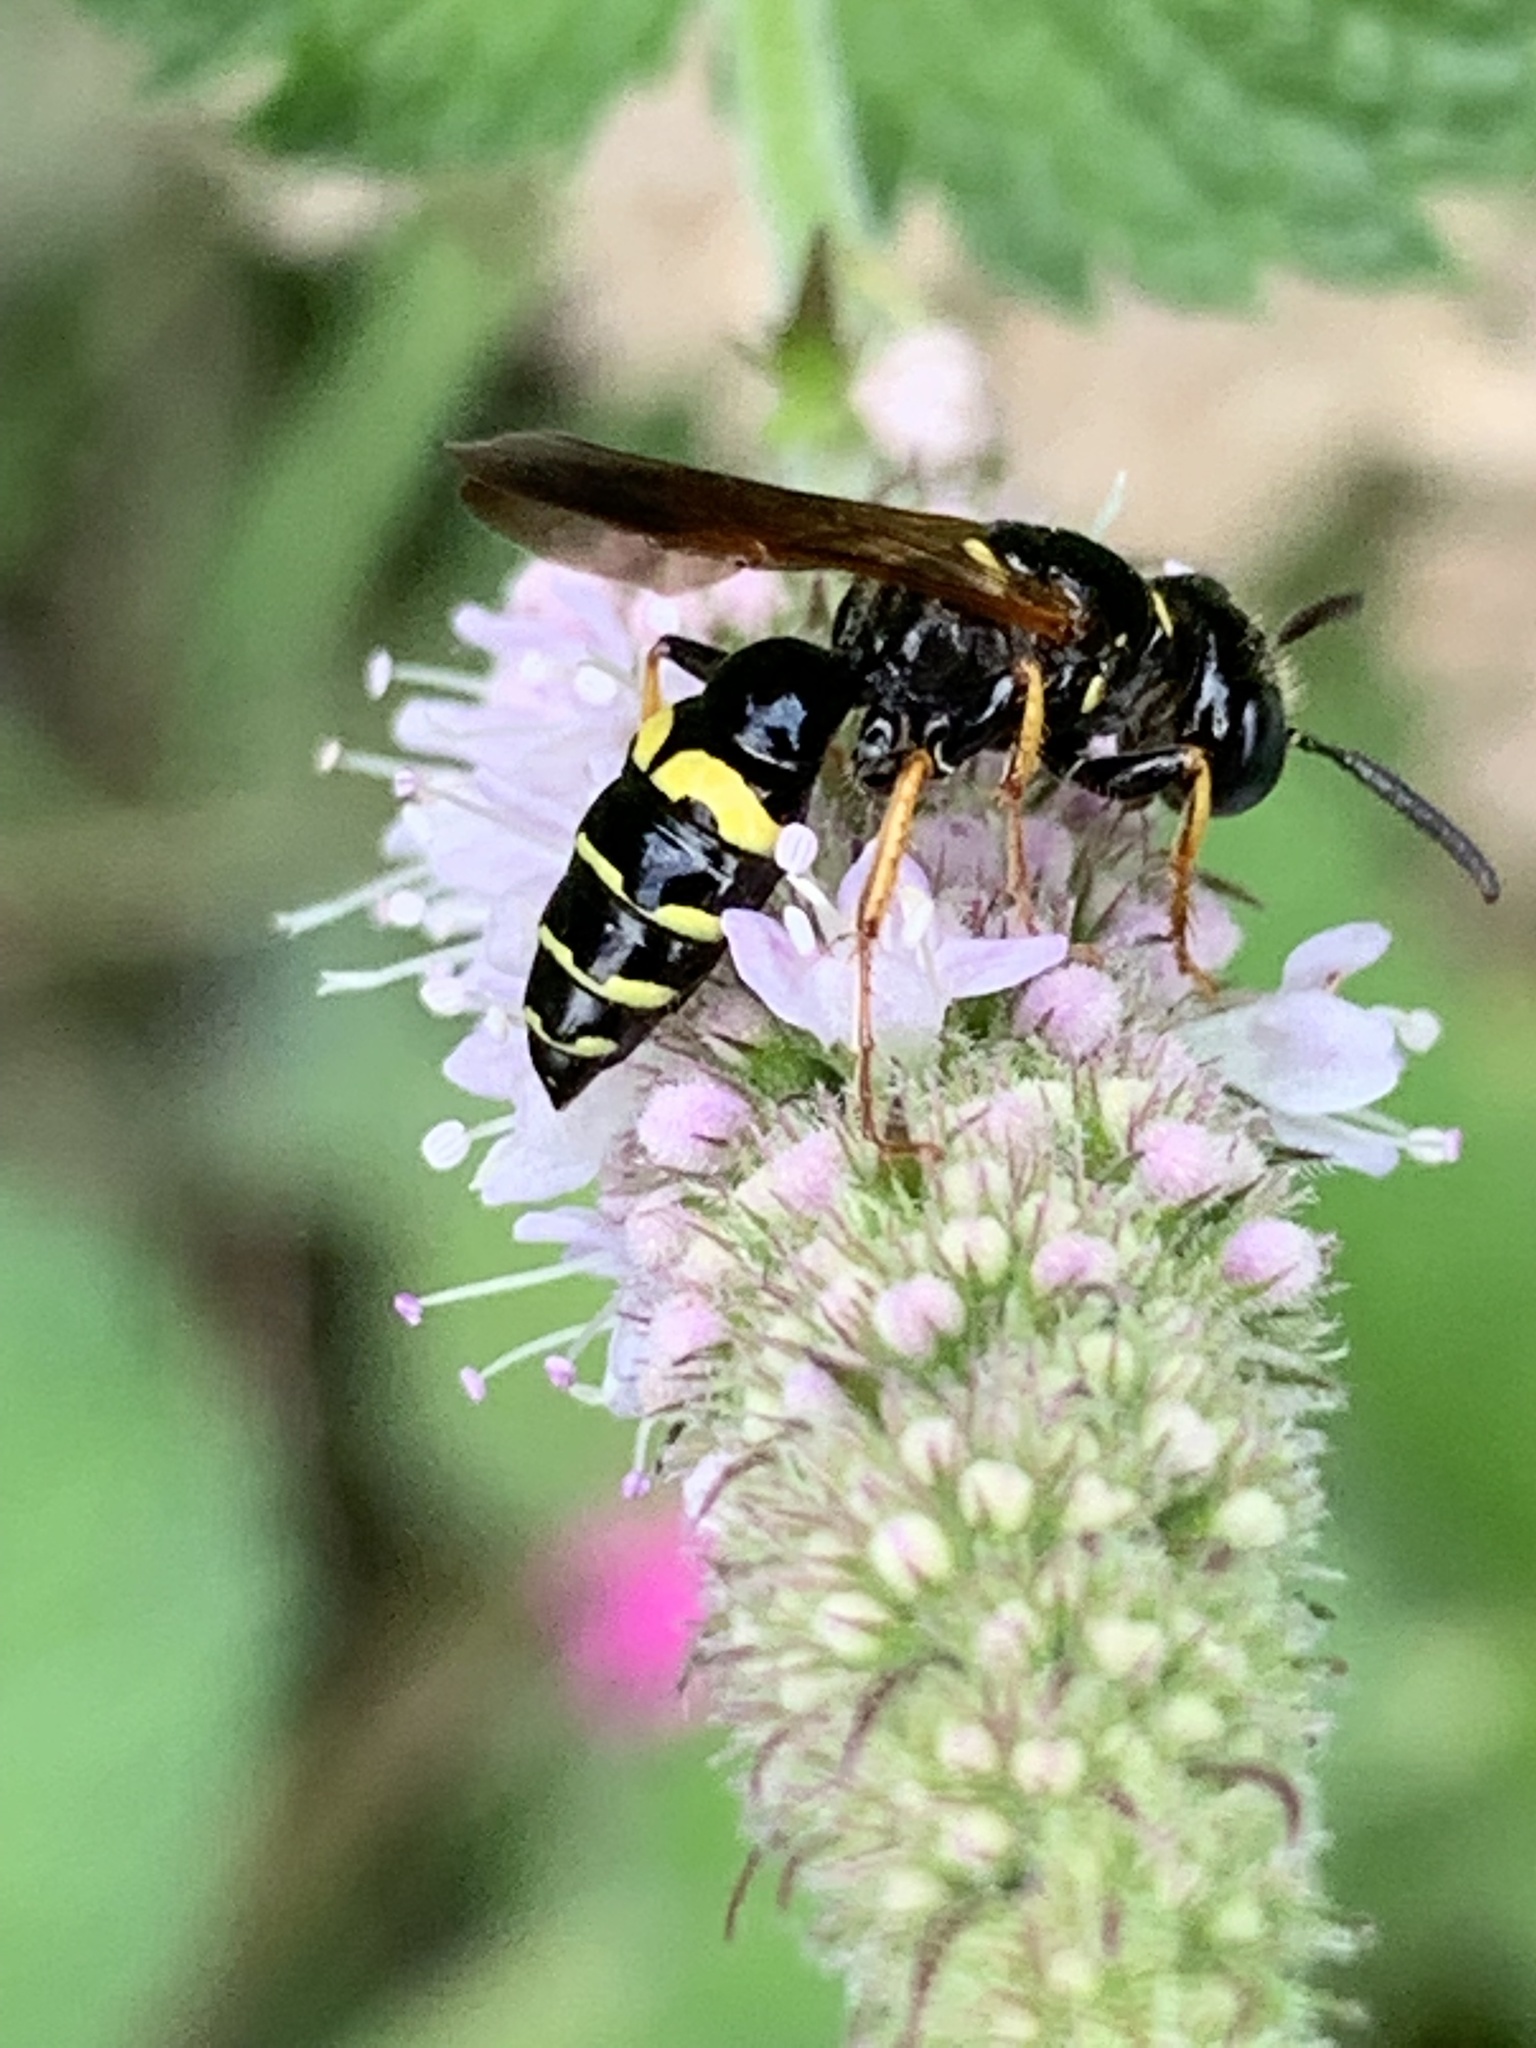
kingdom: Animalia
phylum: Arthropoda
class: Insecta
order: Hymenoptera
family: Crabronidae
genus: Philanthus
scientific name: Philanthus bilunatus
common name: Two moons beewolf
